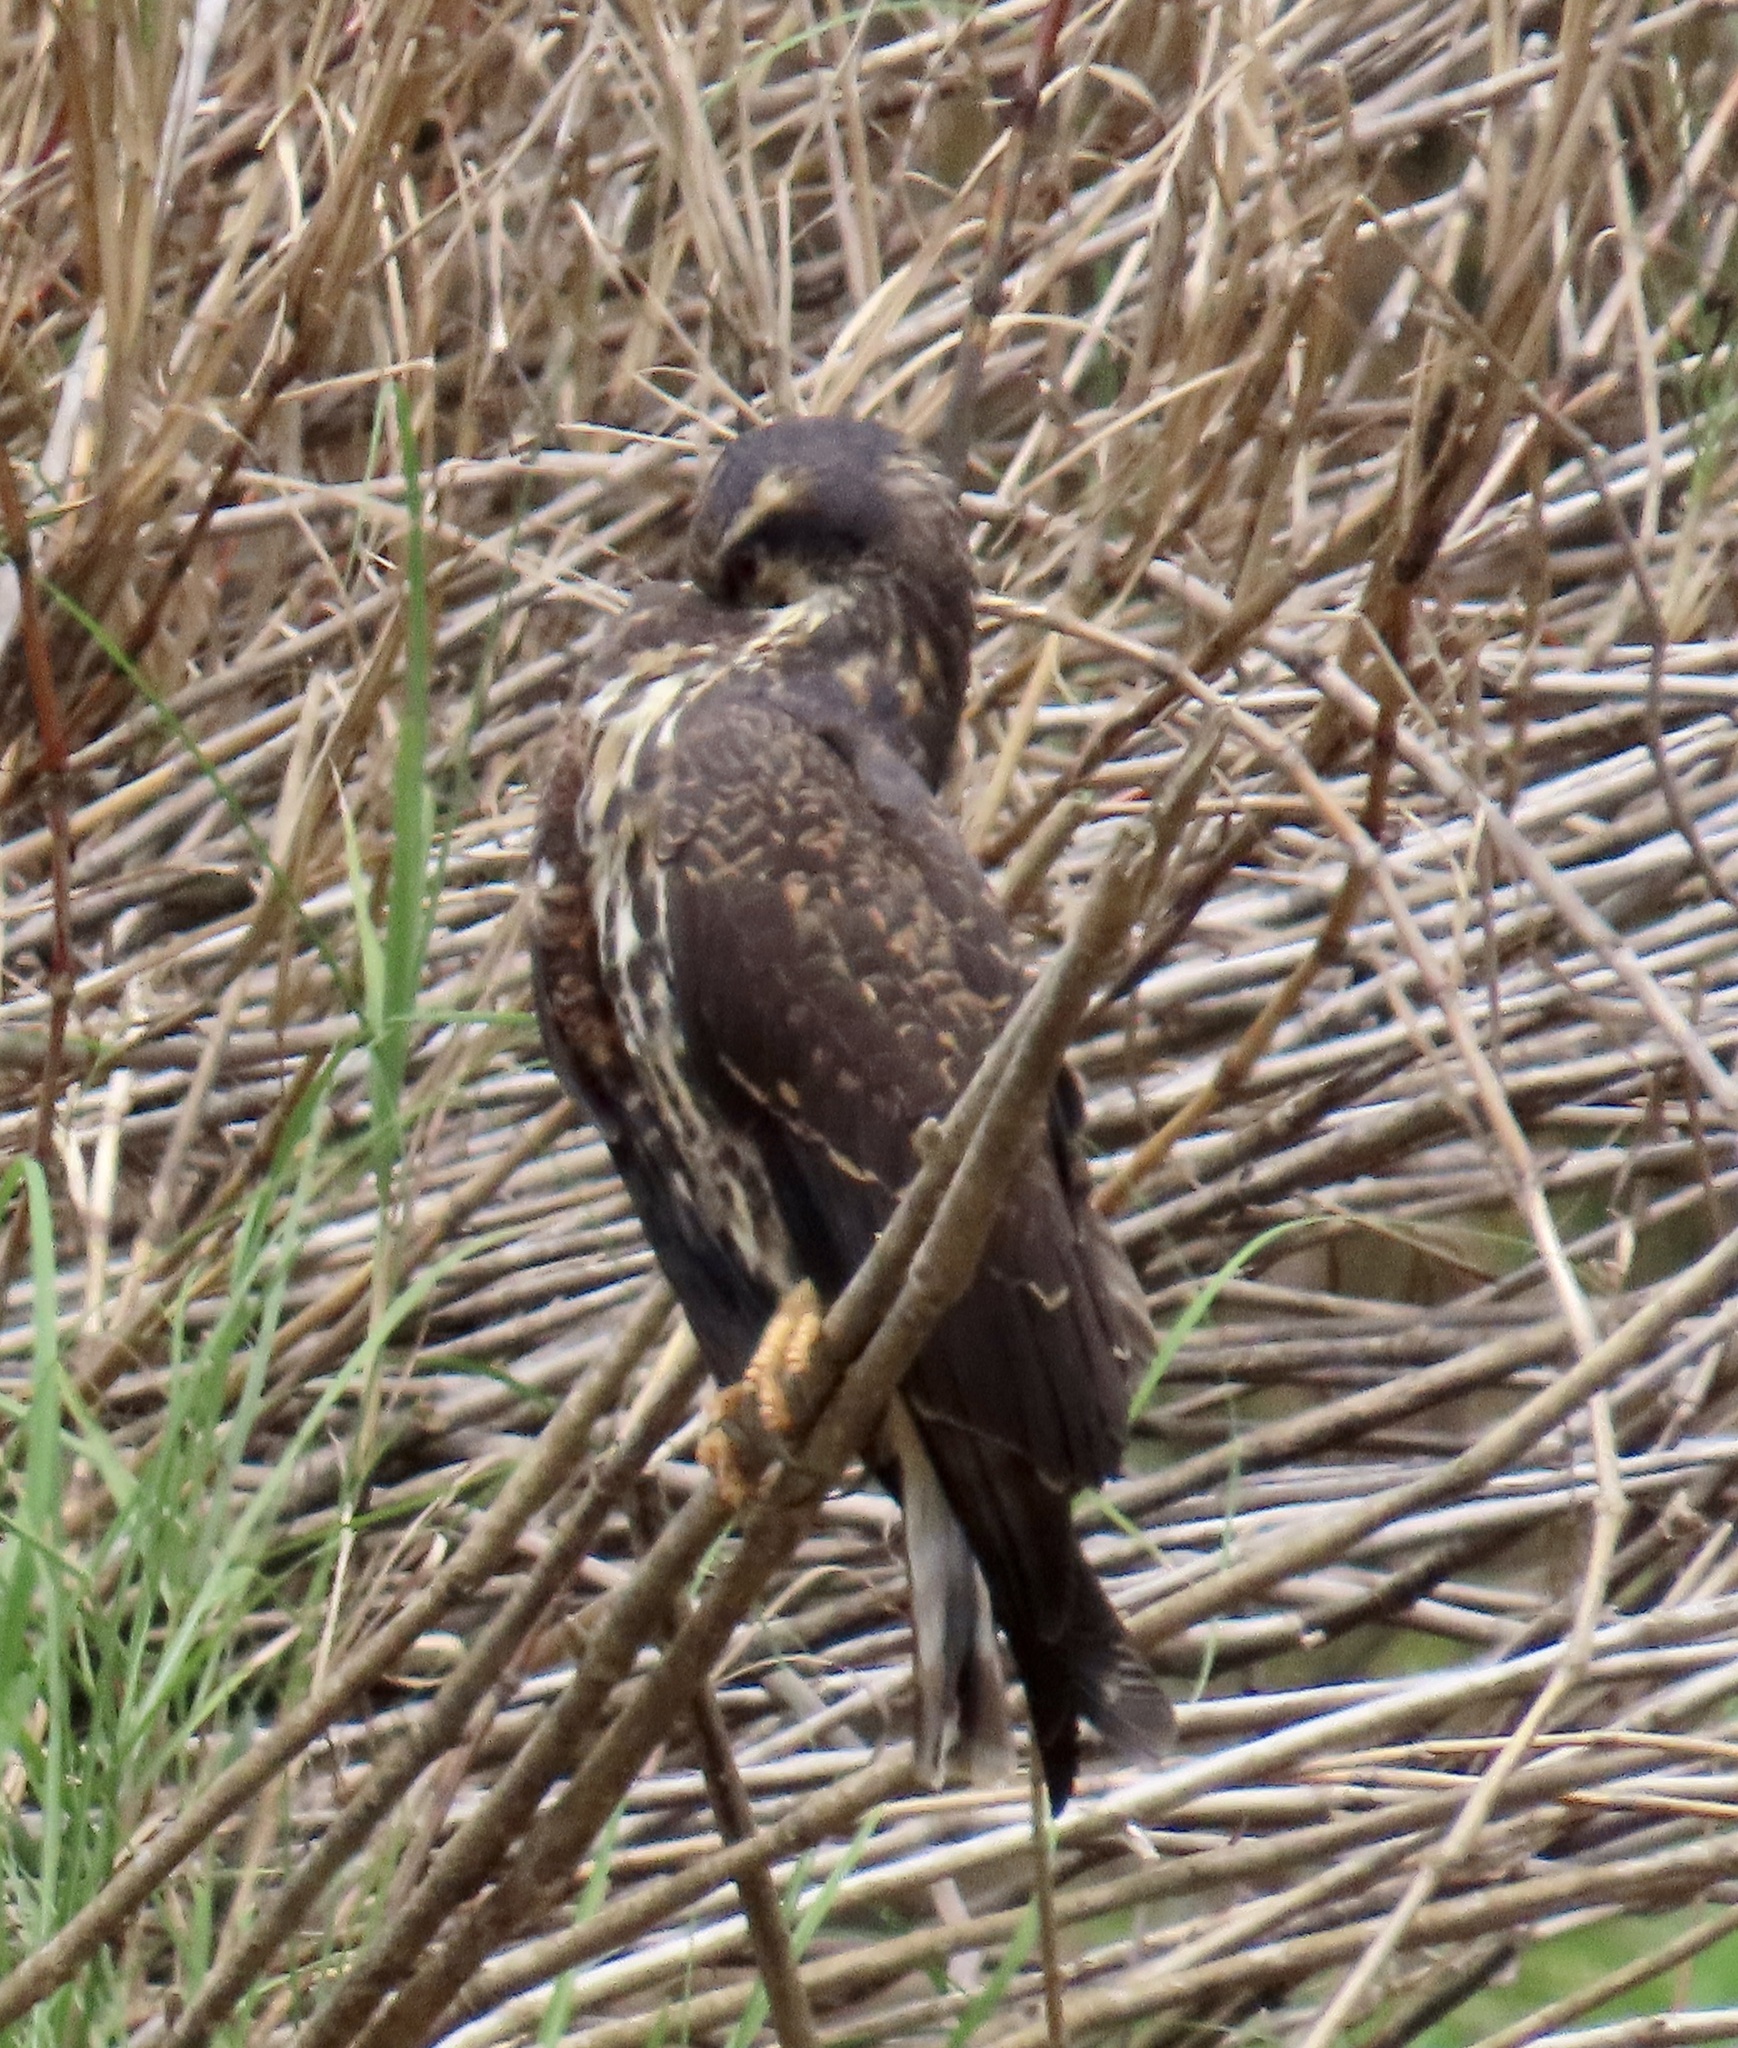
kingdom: Animalia
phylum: Chordata
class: Aves
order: Accipitriformes
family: Accipitridae
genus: Rostrhamus
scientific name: Rostrhamus sociabilis
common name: Snail kite
